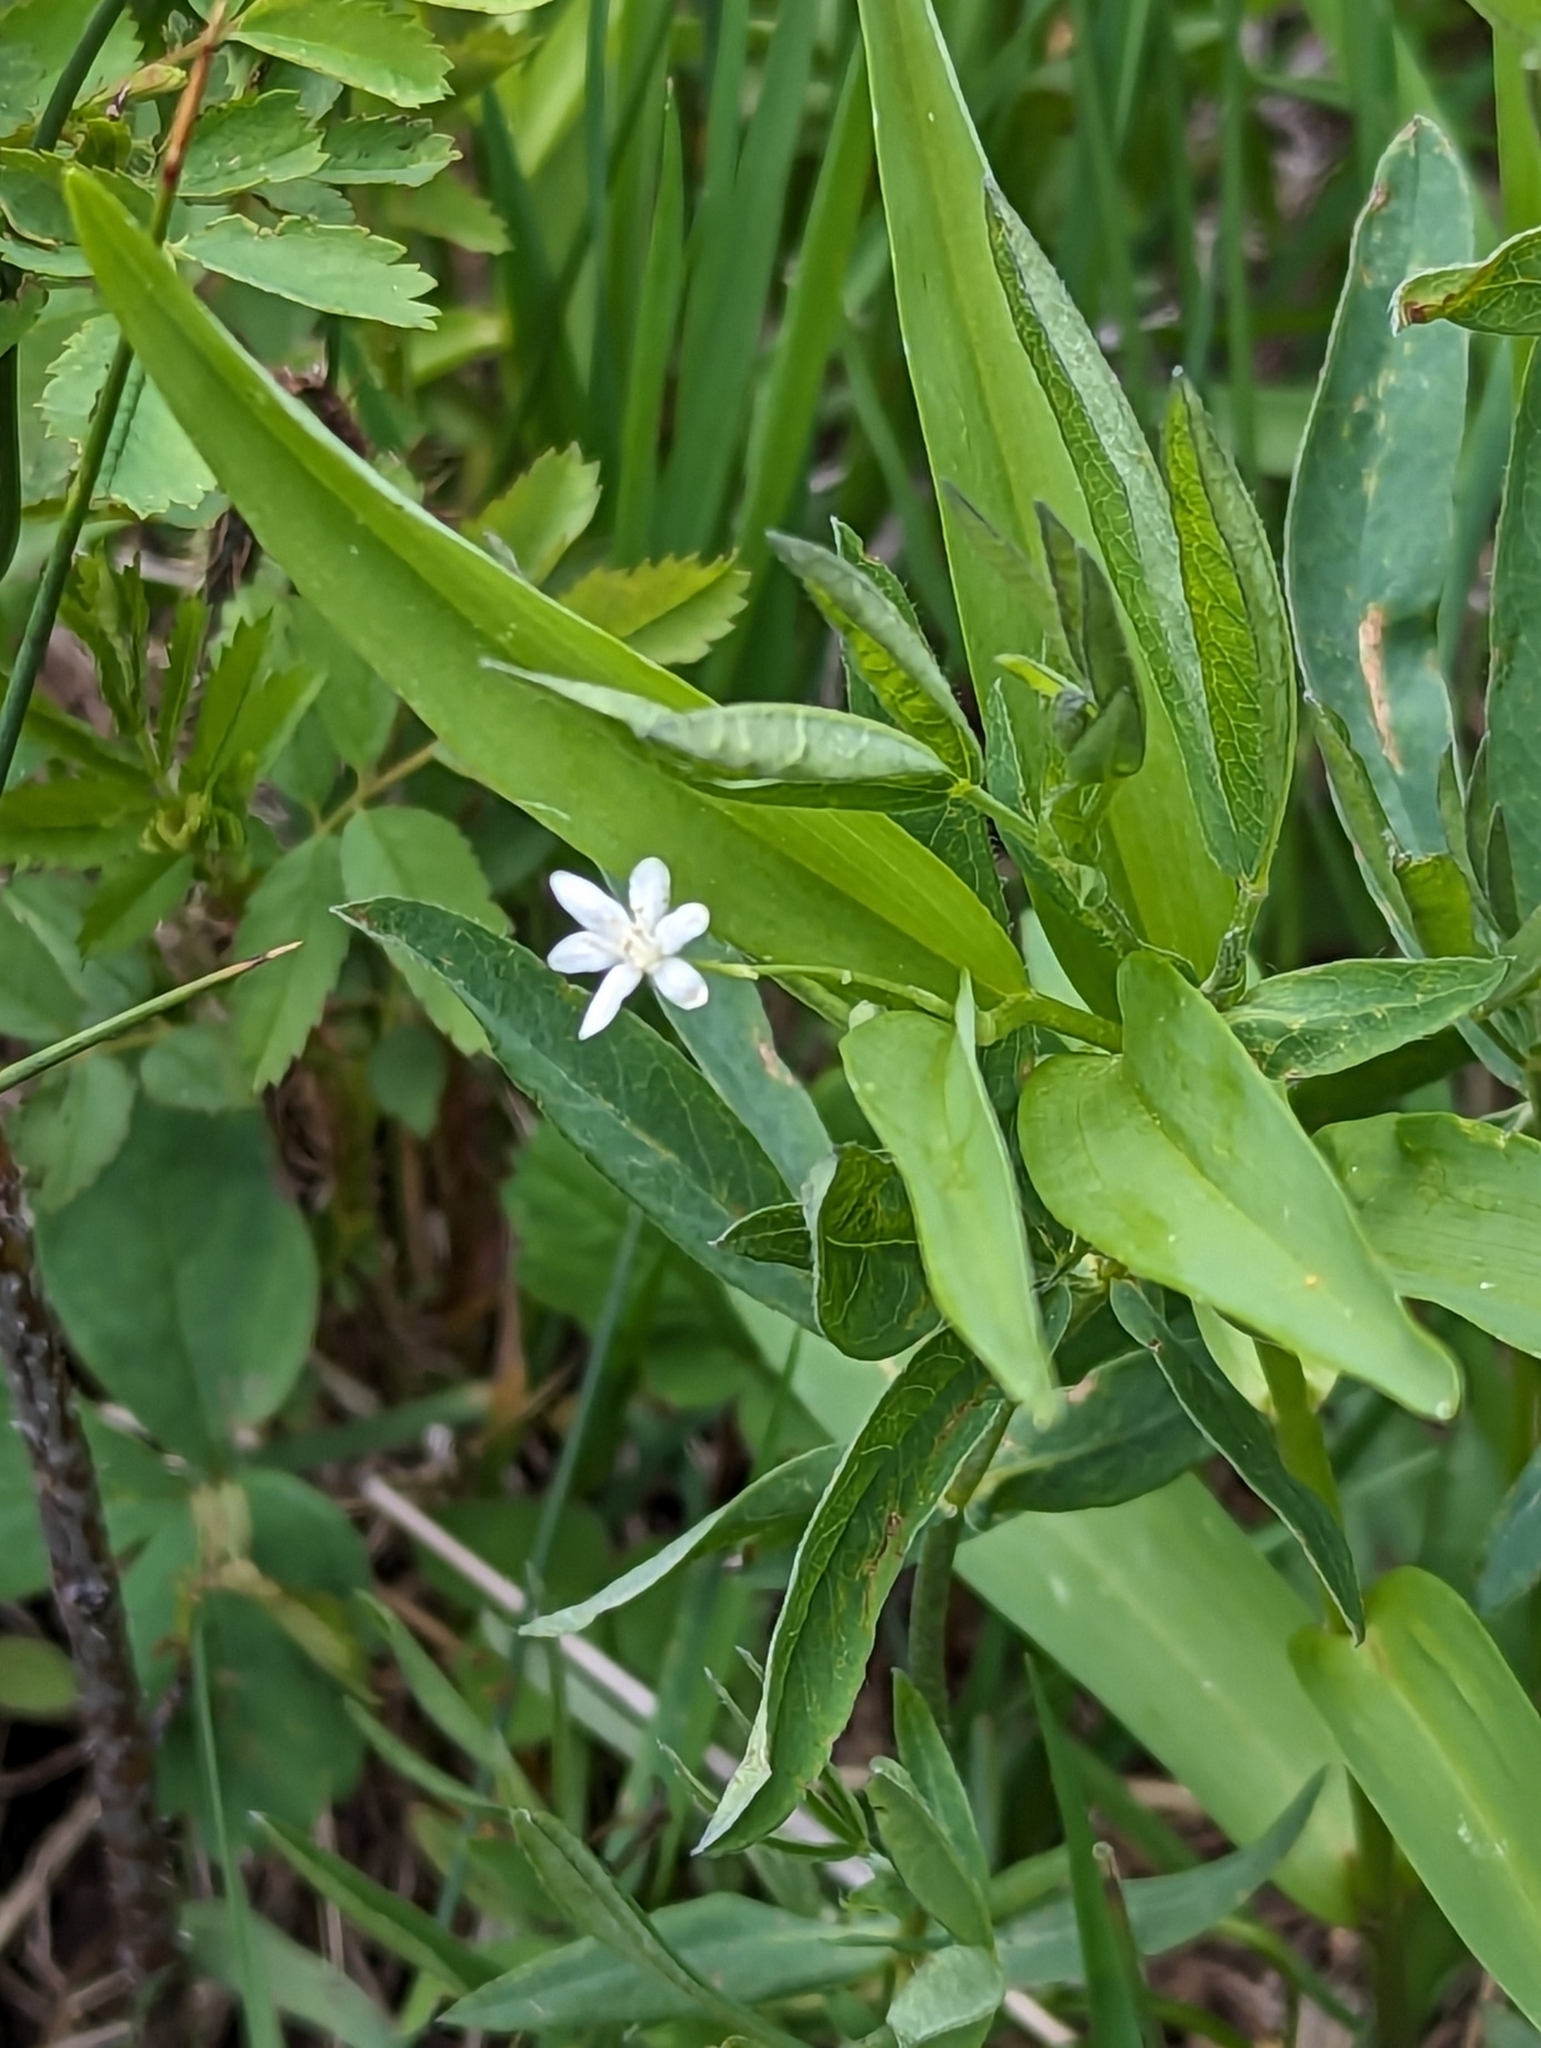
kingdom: Plantae
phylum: Tracheophyta
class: Liliopsida
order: Asparagales
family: Asparagaceae
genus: Maianthemum
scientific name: Maianthemum stellatum
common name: Little false solomon's seal
